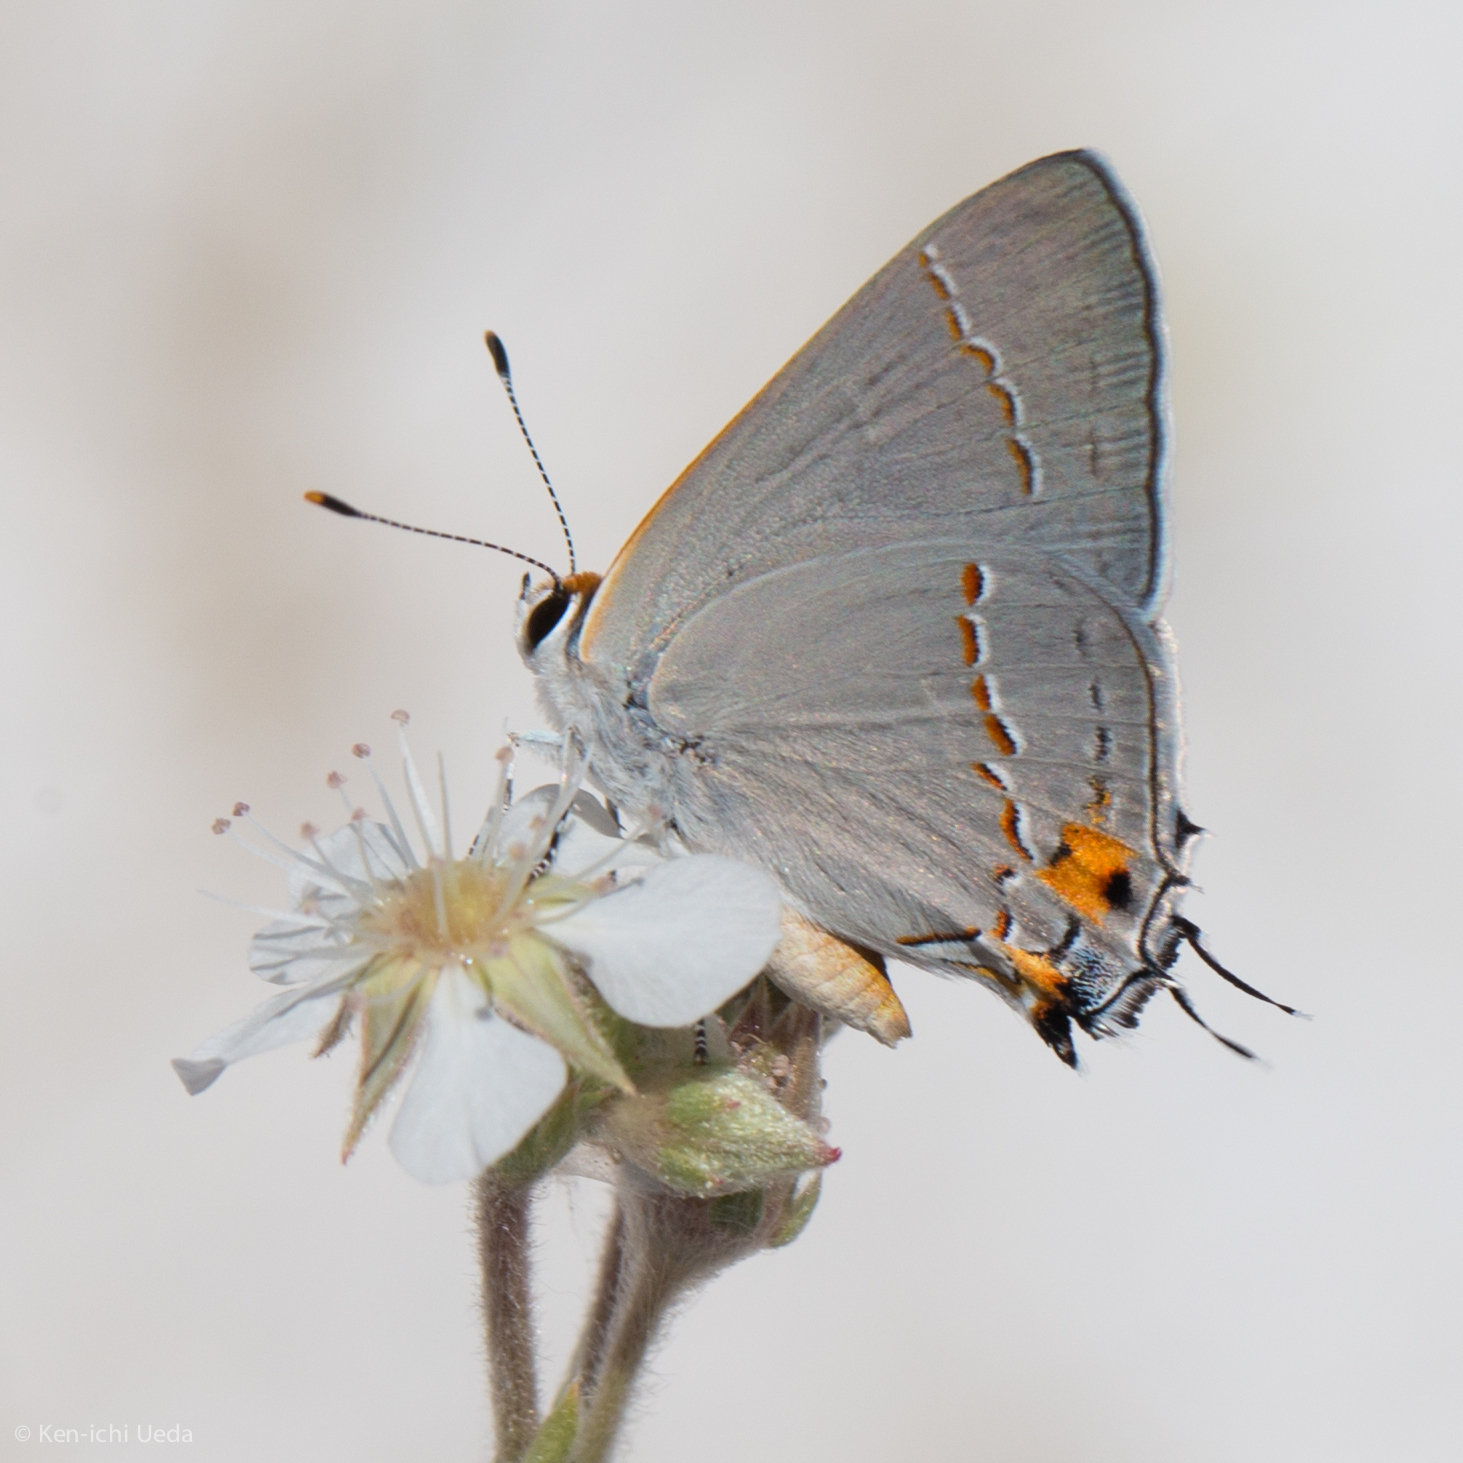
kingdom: Animalia
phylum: Arthropoda
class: Insecta
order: Lepidoptera
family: Lycaenidae
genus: Strymon
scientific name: Strymon melinus
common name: Gray hairstreak
